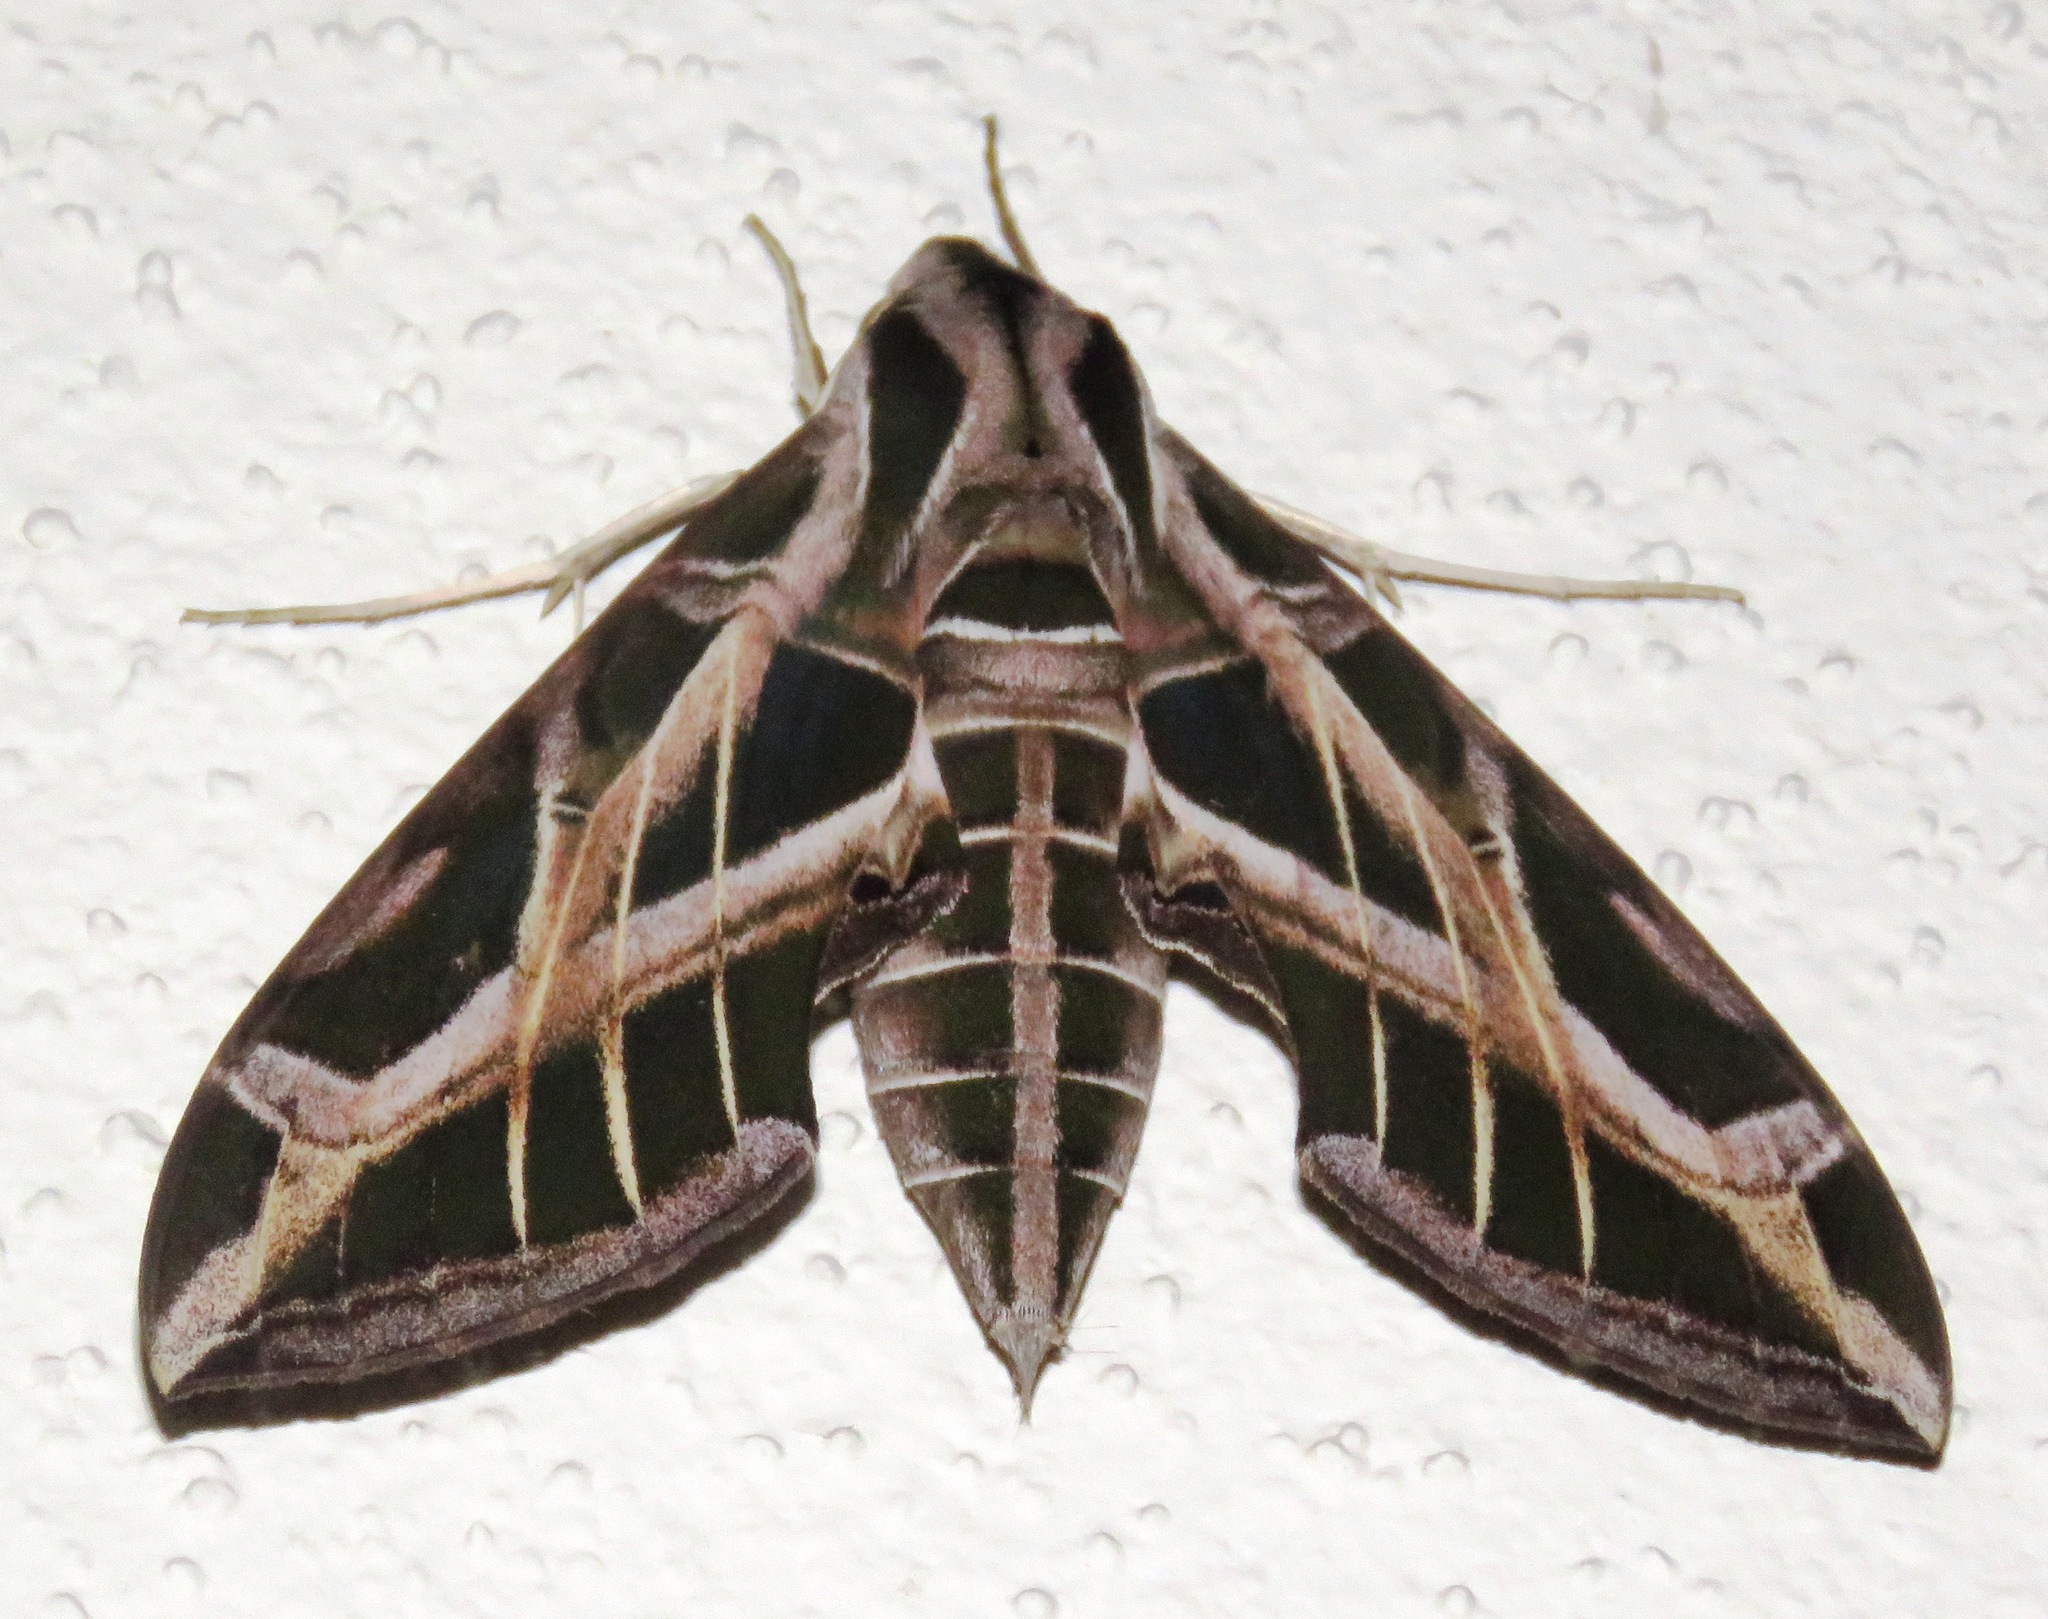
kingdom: Animalia
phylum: Arthropoda
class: Insecta
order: Lepidoptera
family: Sphingidae
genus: Eumorpha
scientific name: Eumorpha vitis
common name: Vine sphinx
